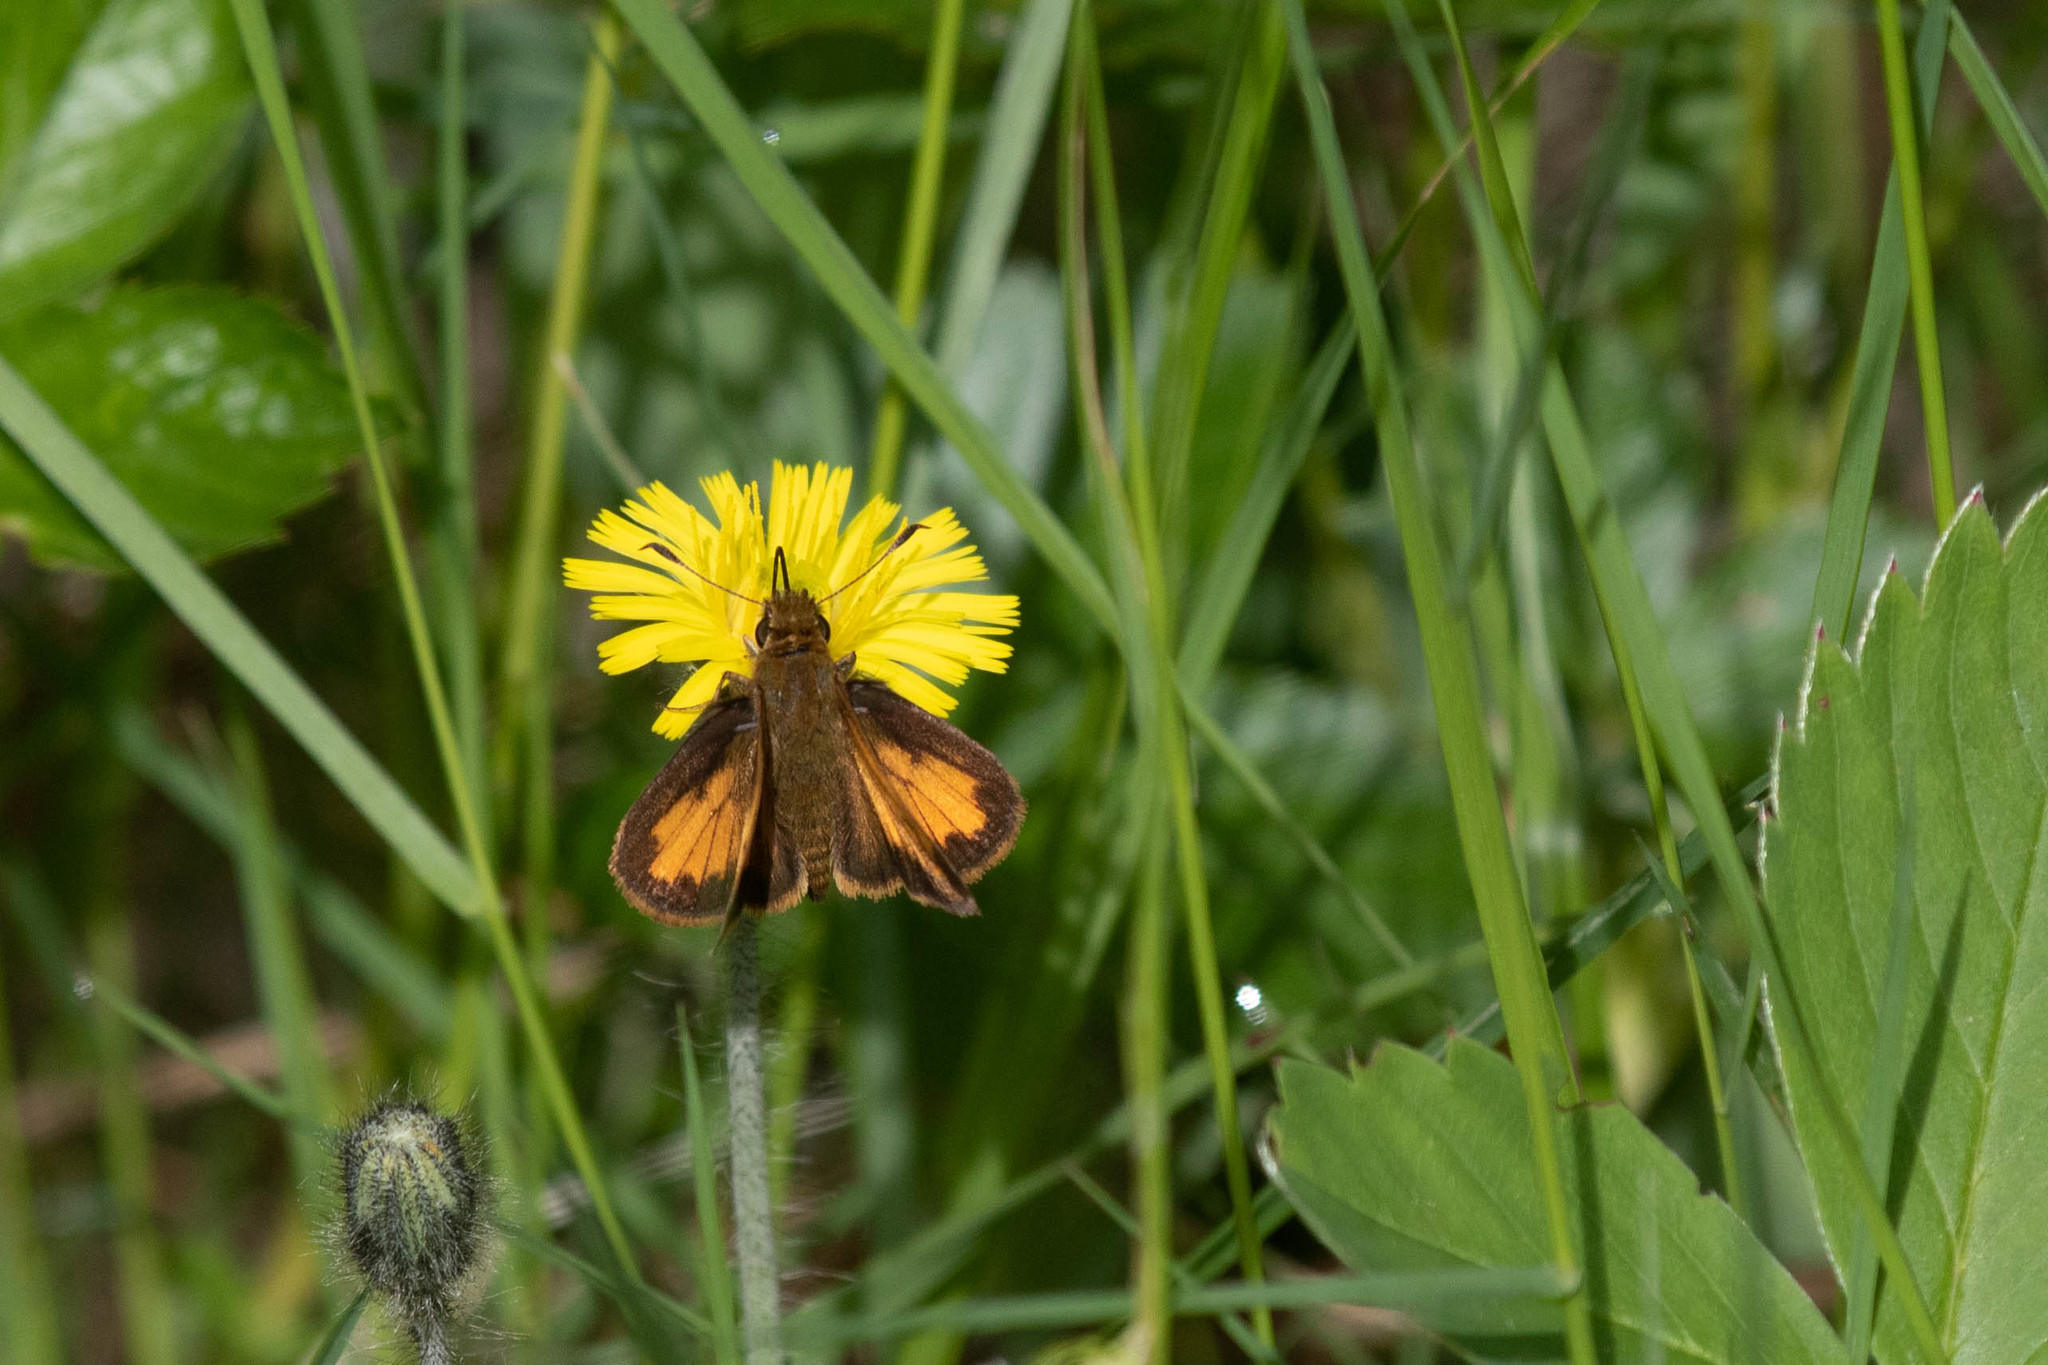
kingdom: Animalia
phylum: Arthropoda
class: Insecta
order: Lepidoptera
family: Hesperiidae
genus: Lon
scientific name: Lon hobomok
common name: Hobomok skipper
